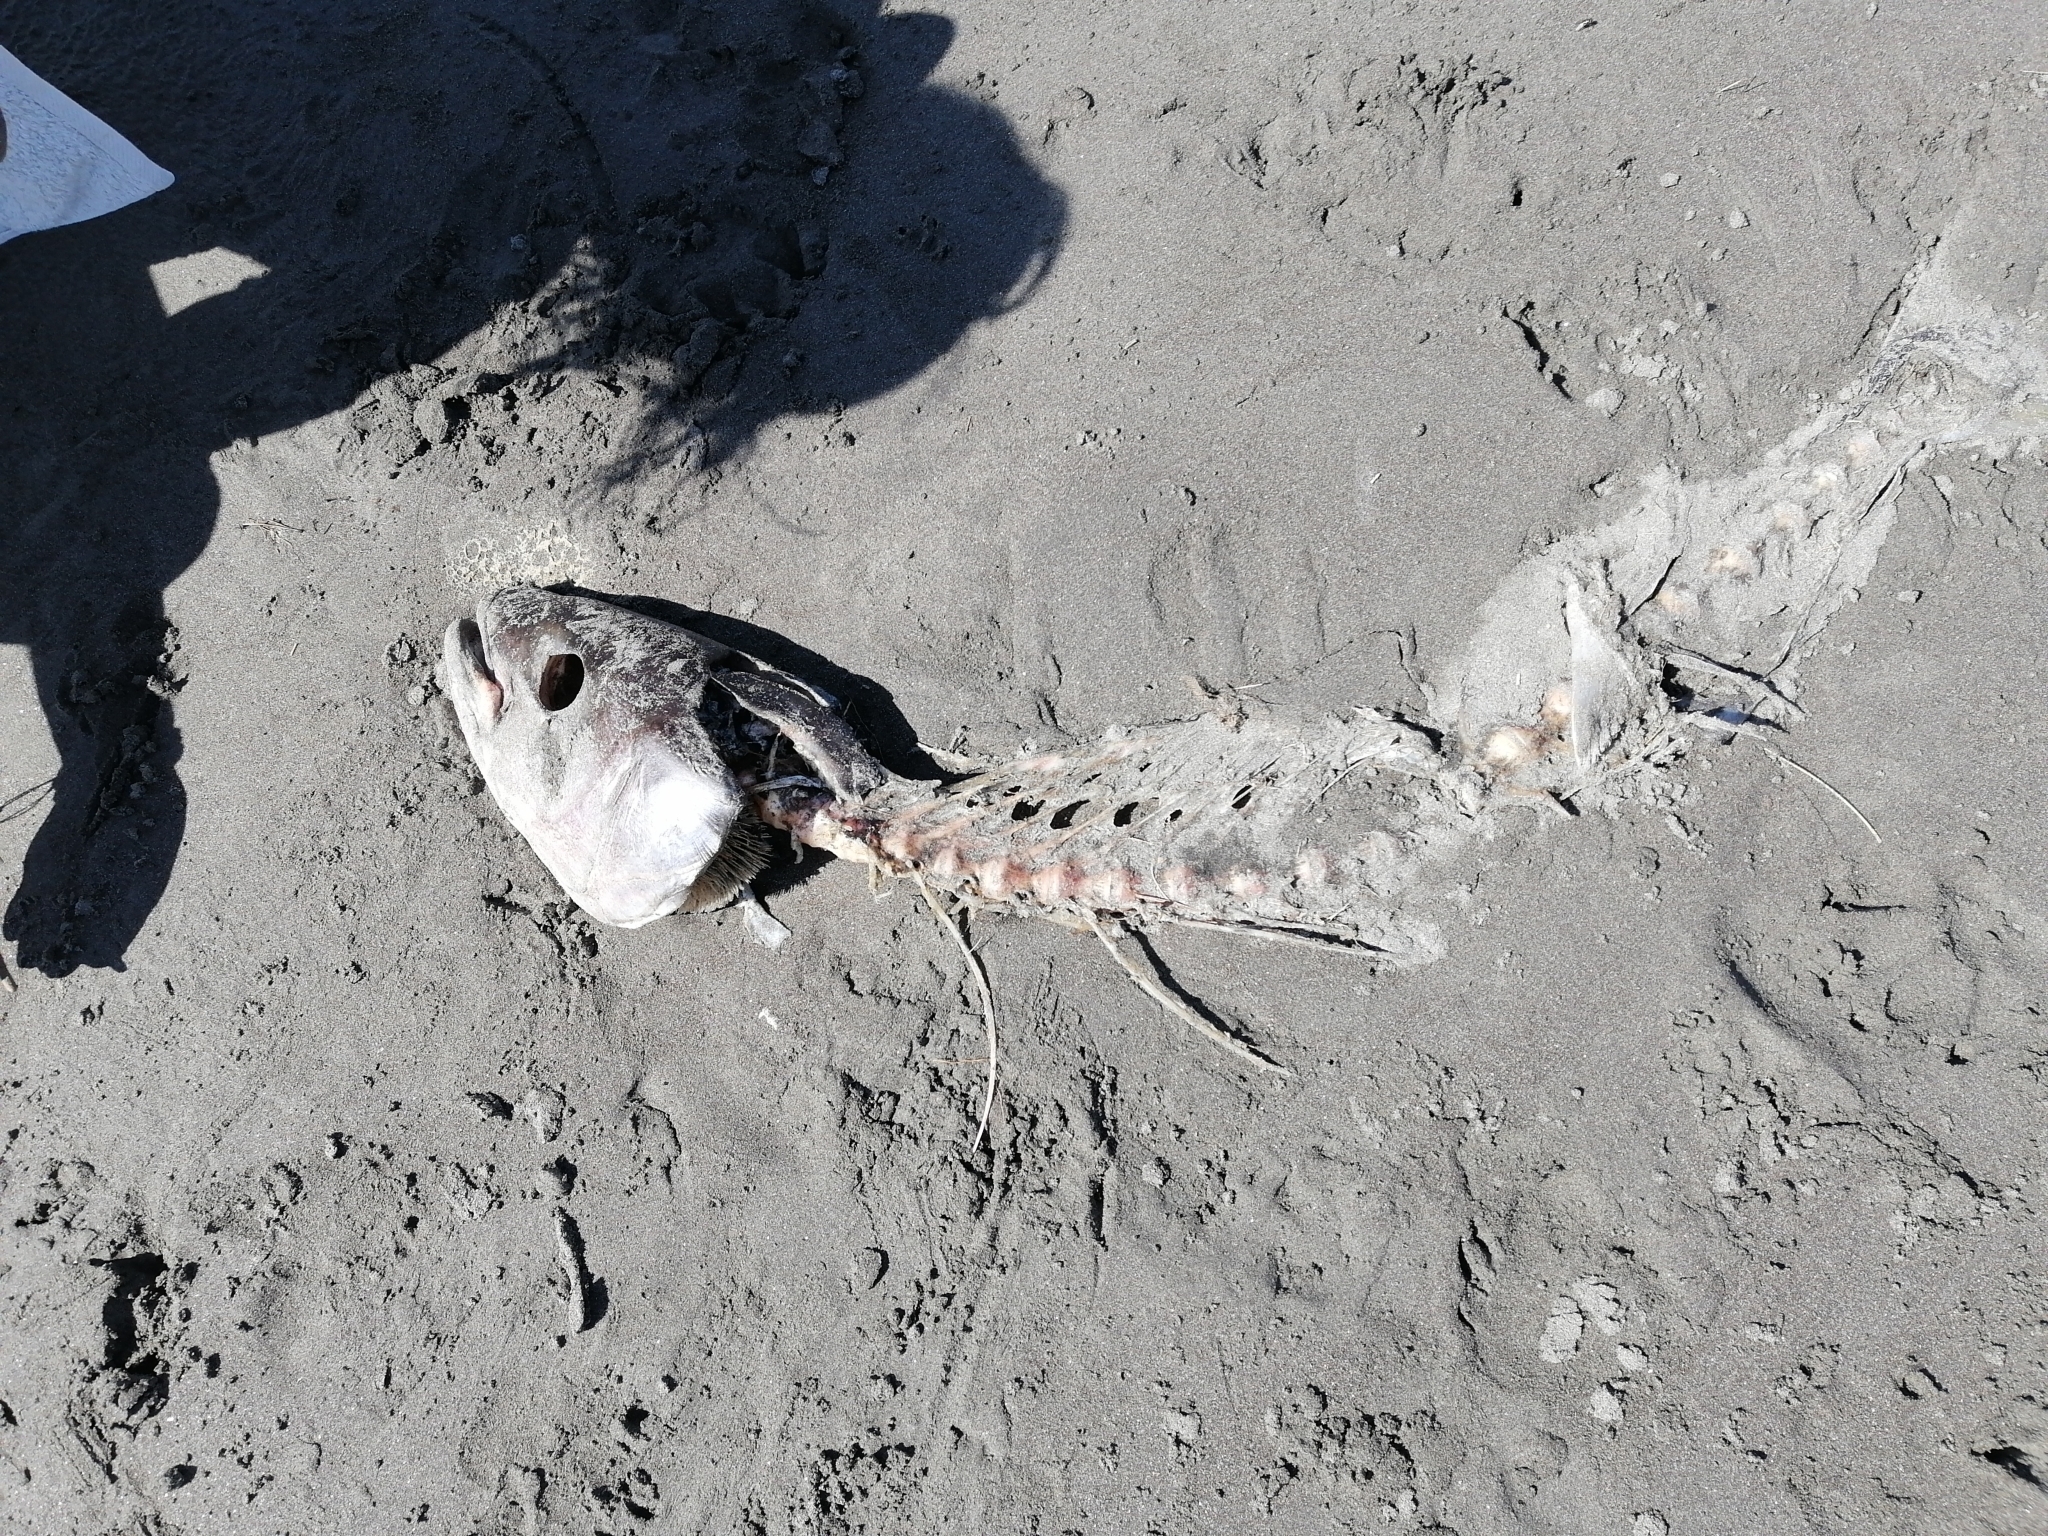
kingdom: Animalia
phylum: Chordata
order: Perciformes
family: Carangidae
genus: Seriola
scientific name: Seriola lalandi
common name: Yellowtail kingfish
